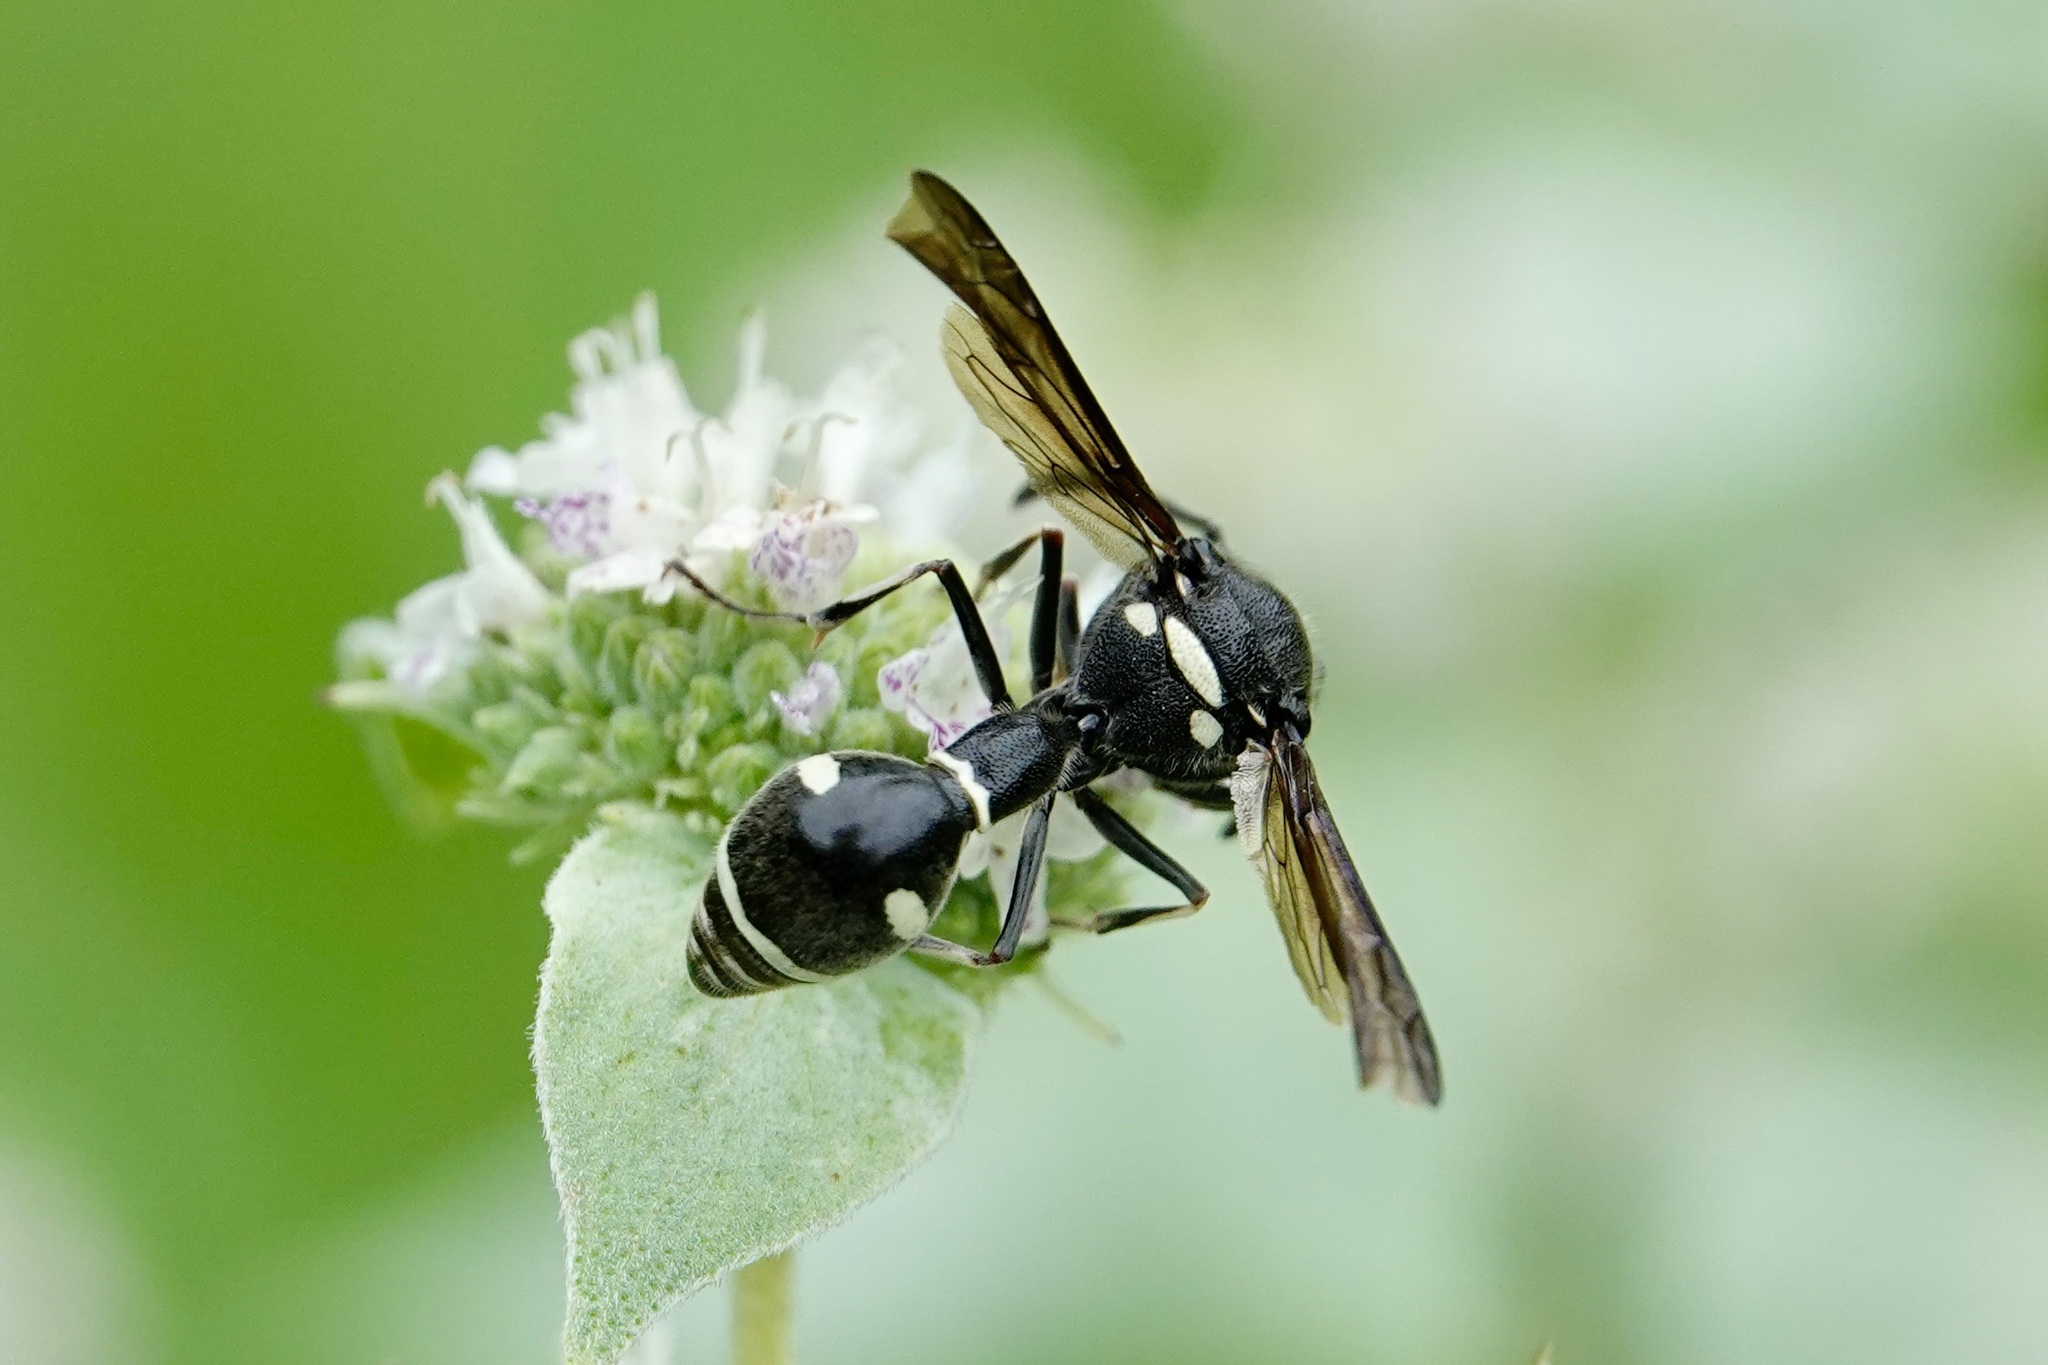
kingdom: Animalia
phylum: Arthropoda
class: Insecta
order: Hymenoptera
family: Vespidae
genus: Eumenes
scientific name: Eumenes fraternus
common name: Fraternal potter wasp
